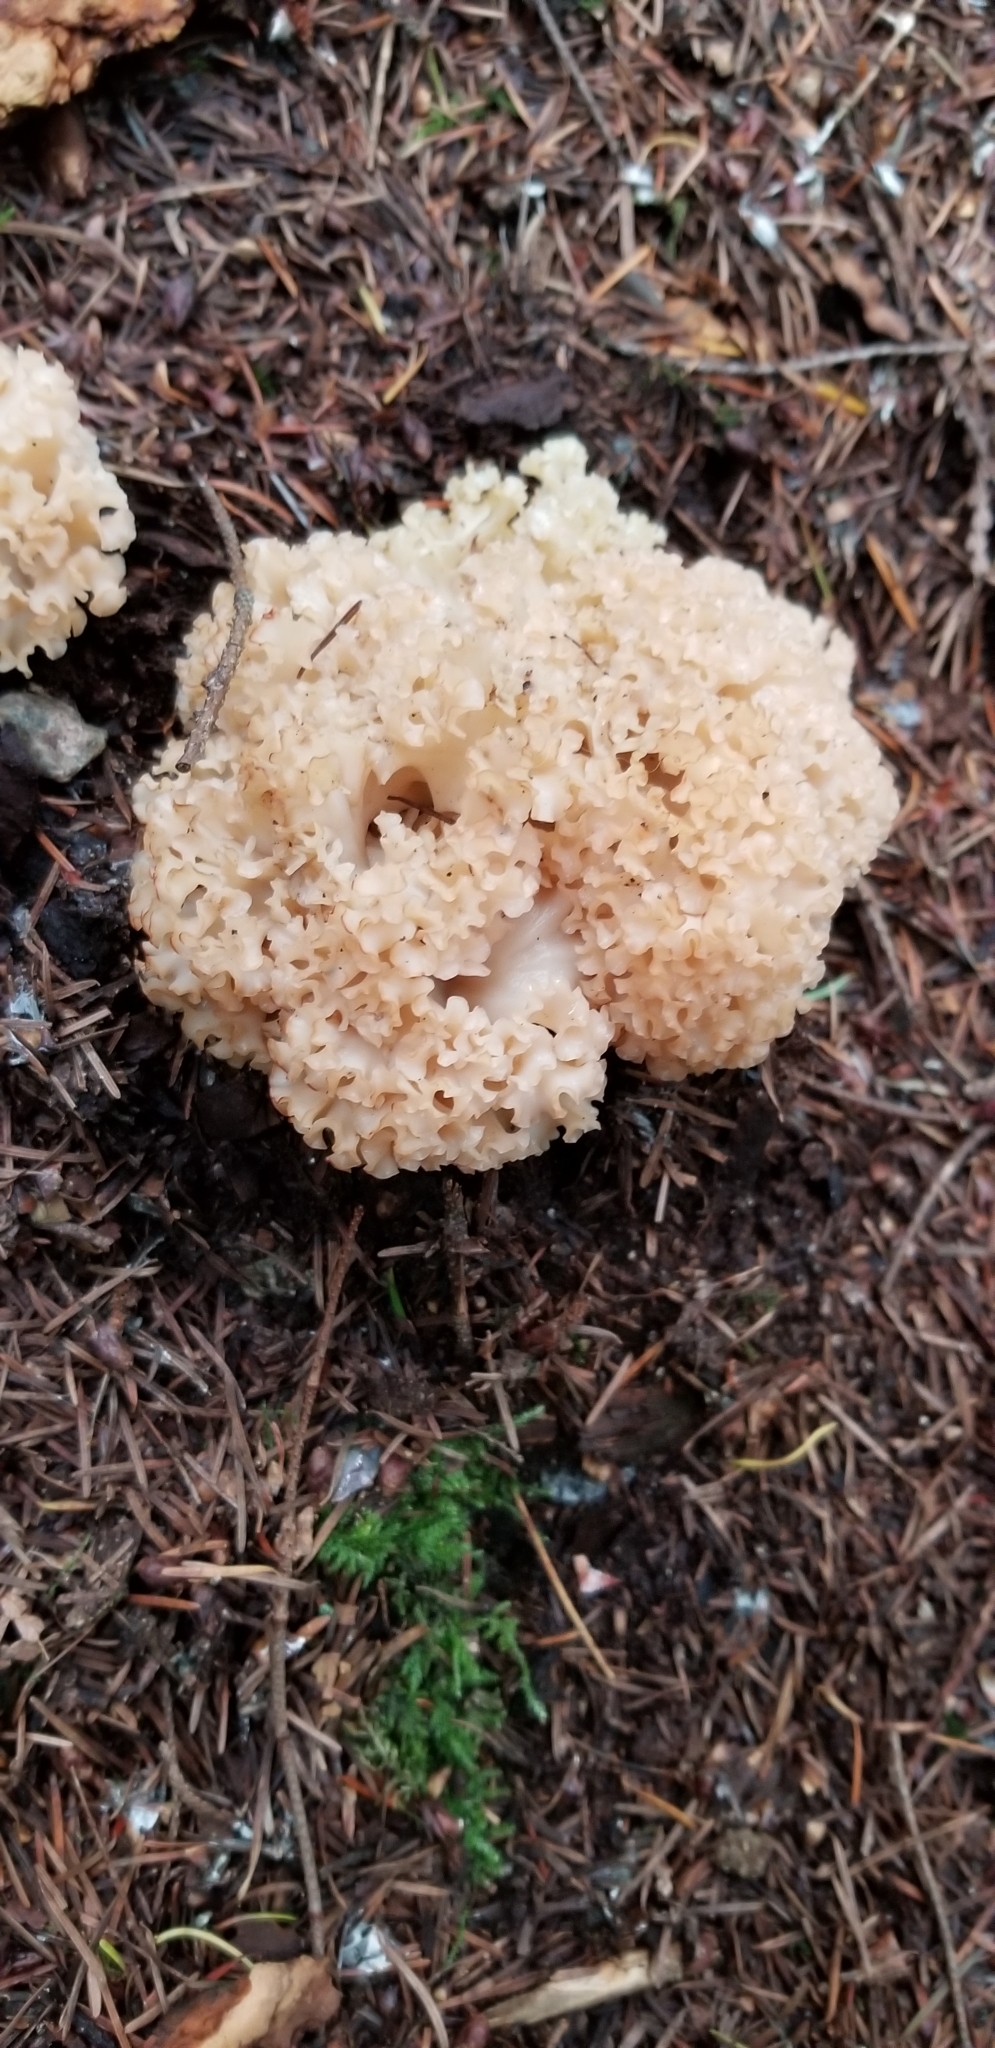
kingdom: Fungi
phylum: Basidiomycota
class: Agaricomycetes
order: Polyporales
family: Sparassidaceae
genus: Sparassis
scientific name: Sparassis radicata
